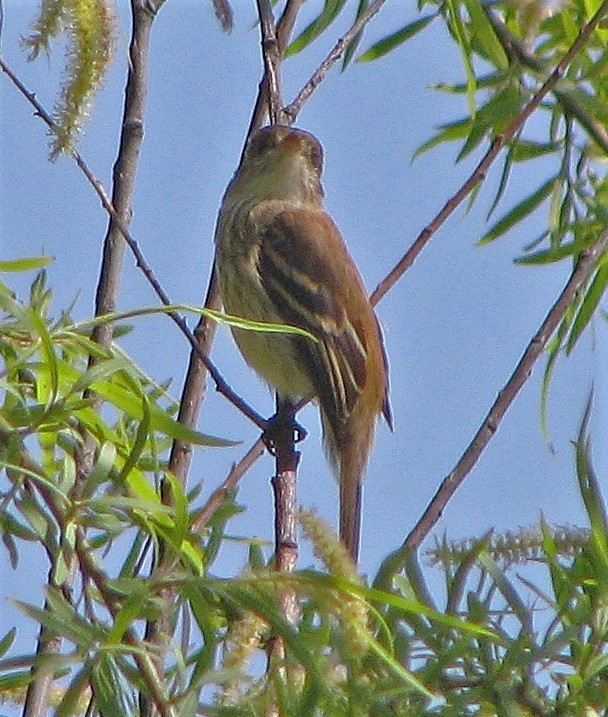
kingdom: Animalia
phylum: Chordata
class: Aves
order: Passeriformes
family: Tyrannidae
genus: Myiophobus
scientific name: Myiophobus fasciatus
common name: Bran-colored flycatcher
